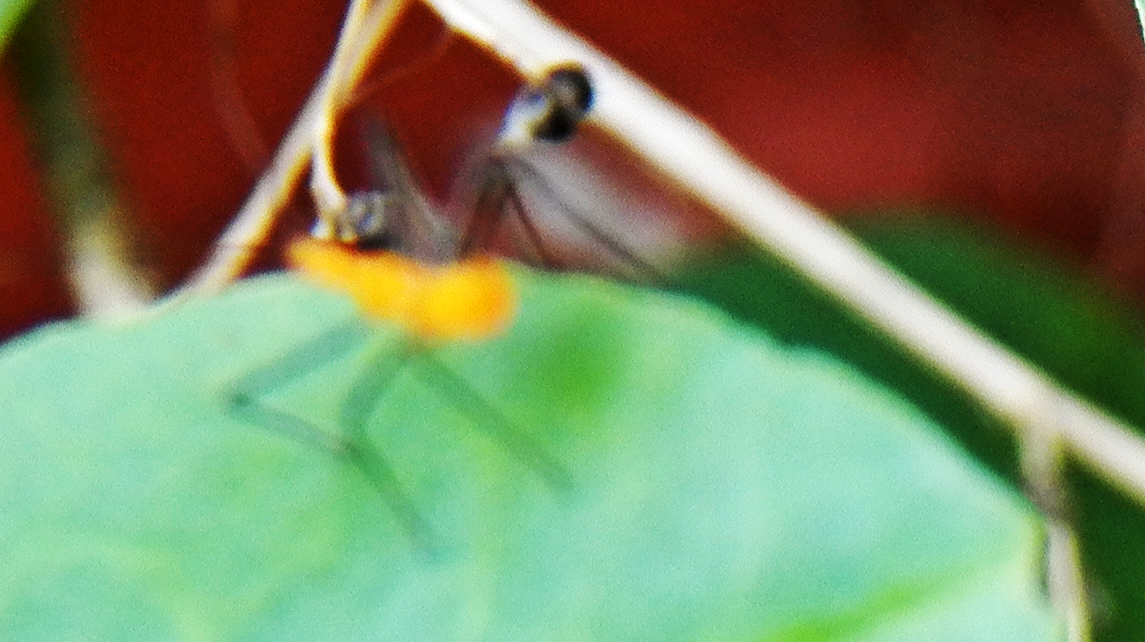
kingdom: Animalia
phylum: Arthropoda
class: Insecta
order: Hemiptera
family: Reduviidae
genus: Zelus
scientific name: Zelus longipes
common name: Milkweed assassin bug
